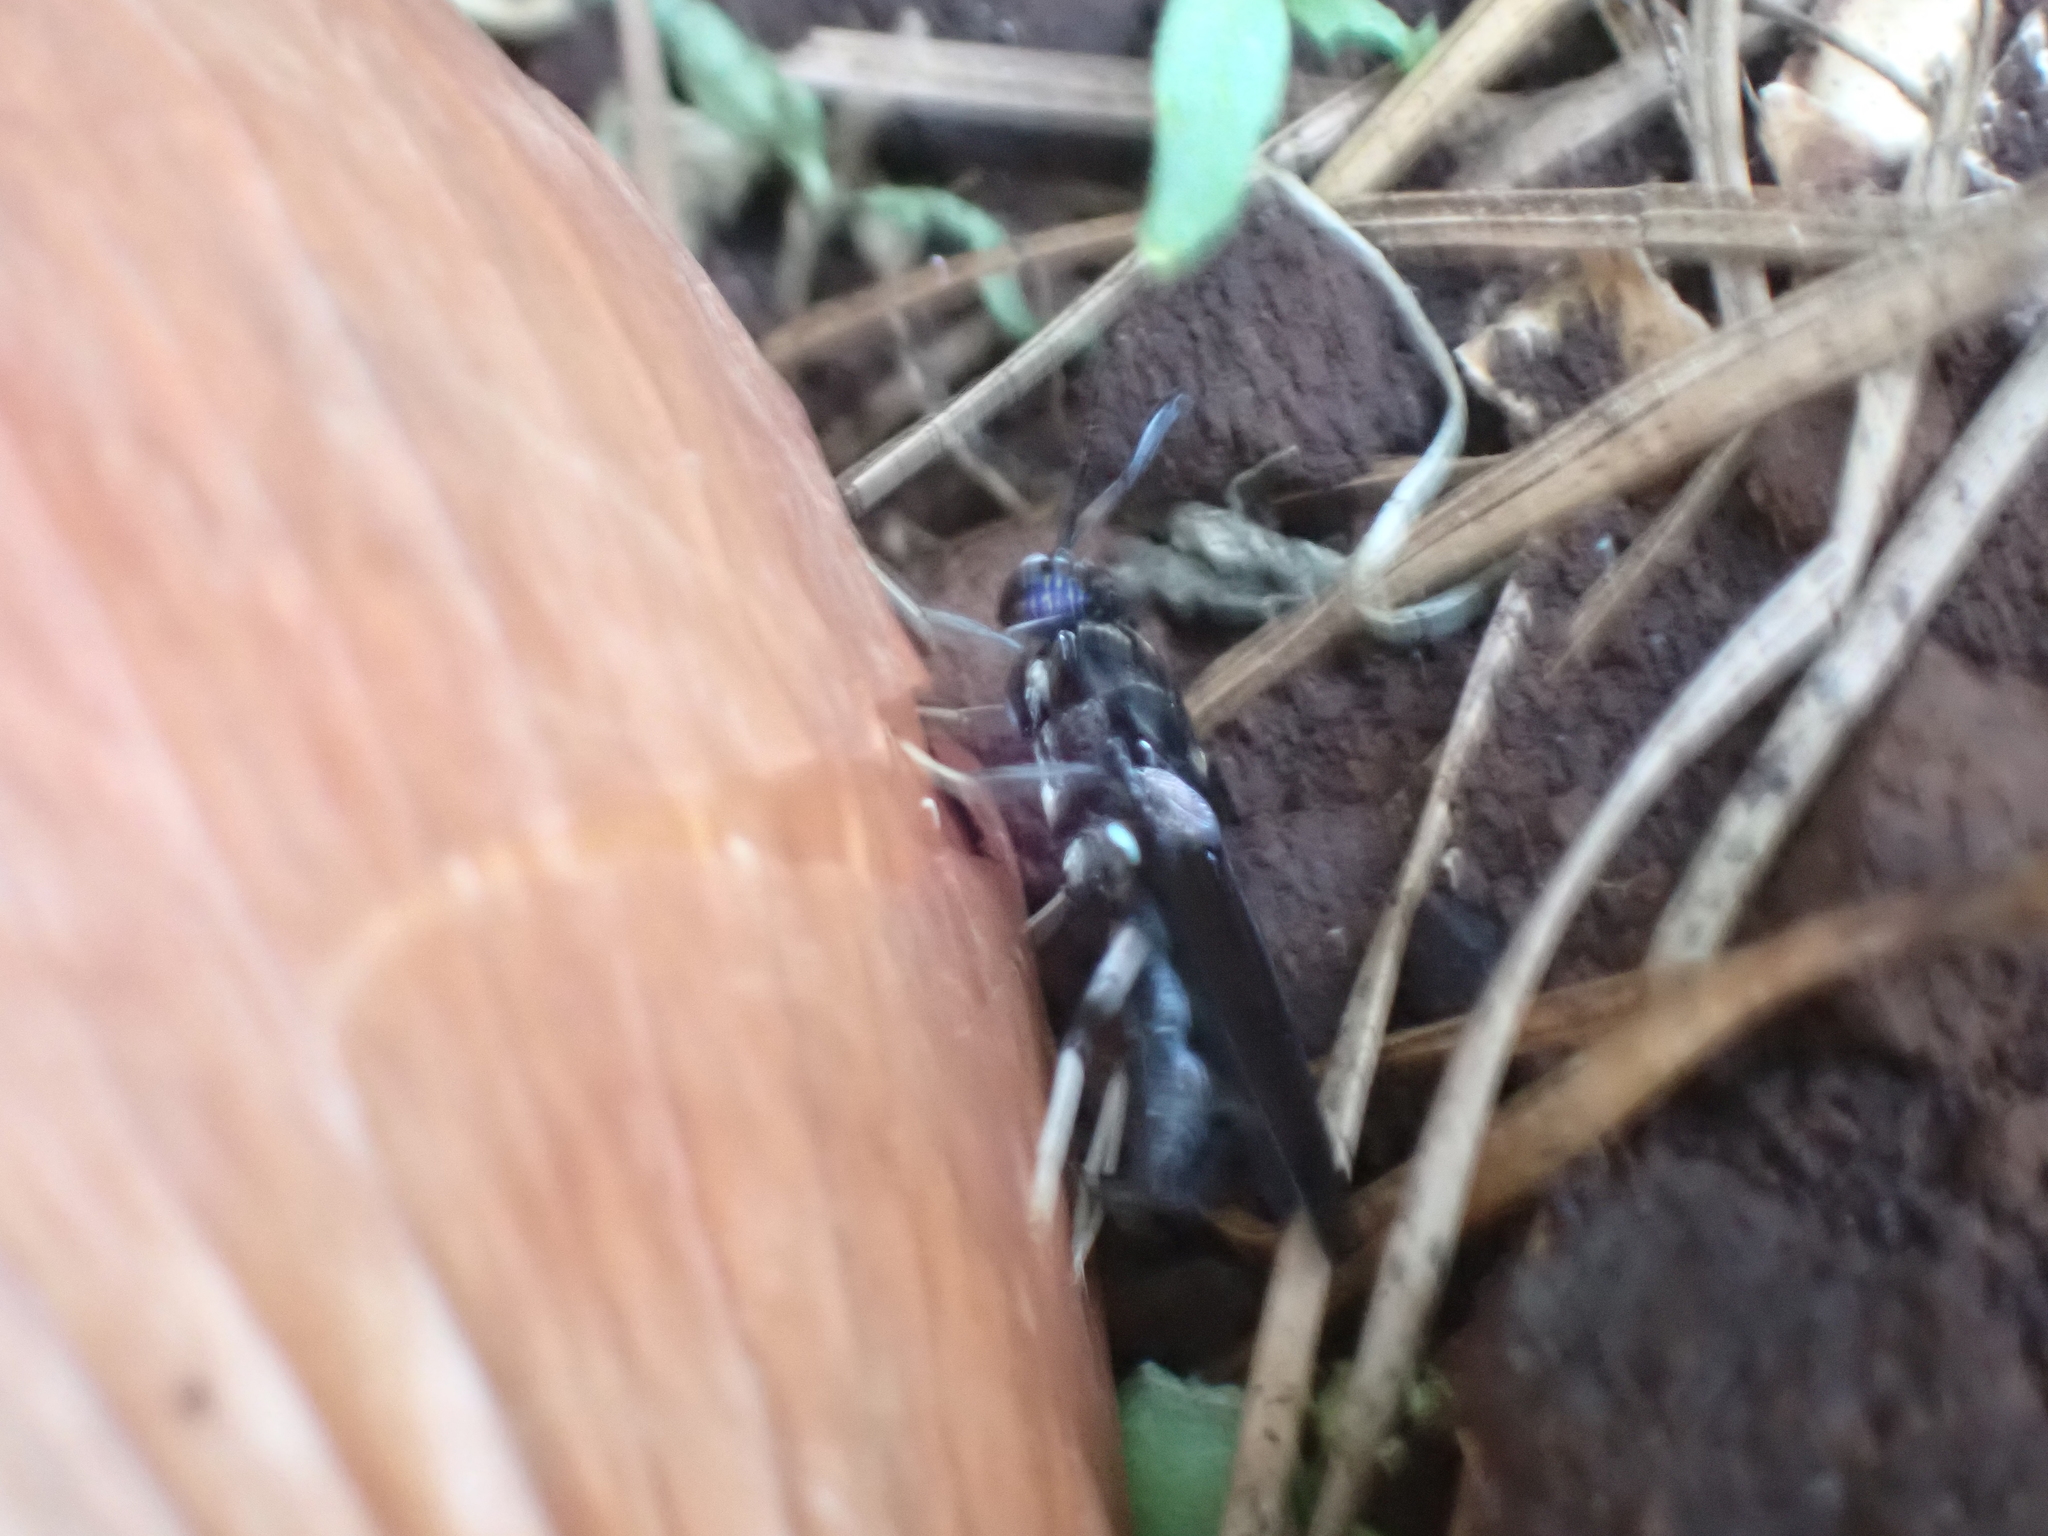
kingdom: Animalia
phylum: Arthropoda
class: Insecta
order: Diptera
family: Stratiomyidae
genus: Hermetia
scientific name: Hermetia illucens
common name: Black soldier fly
